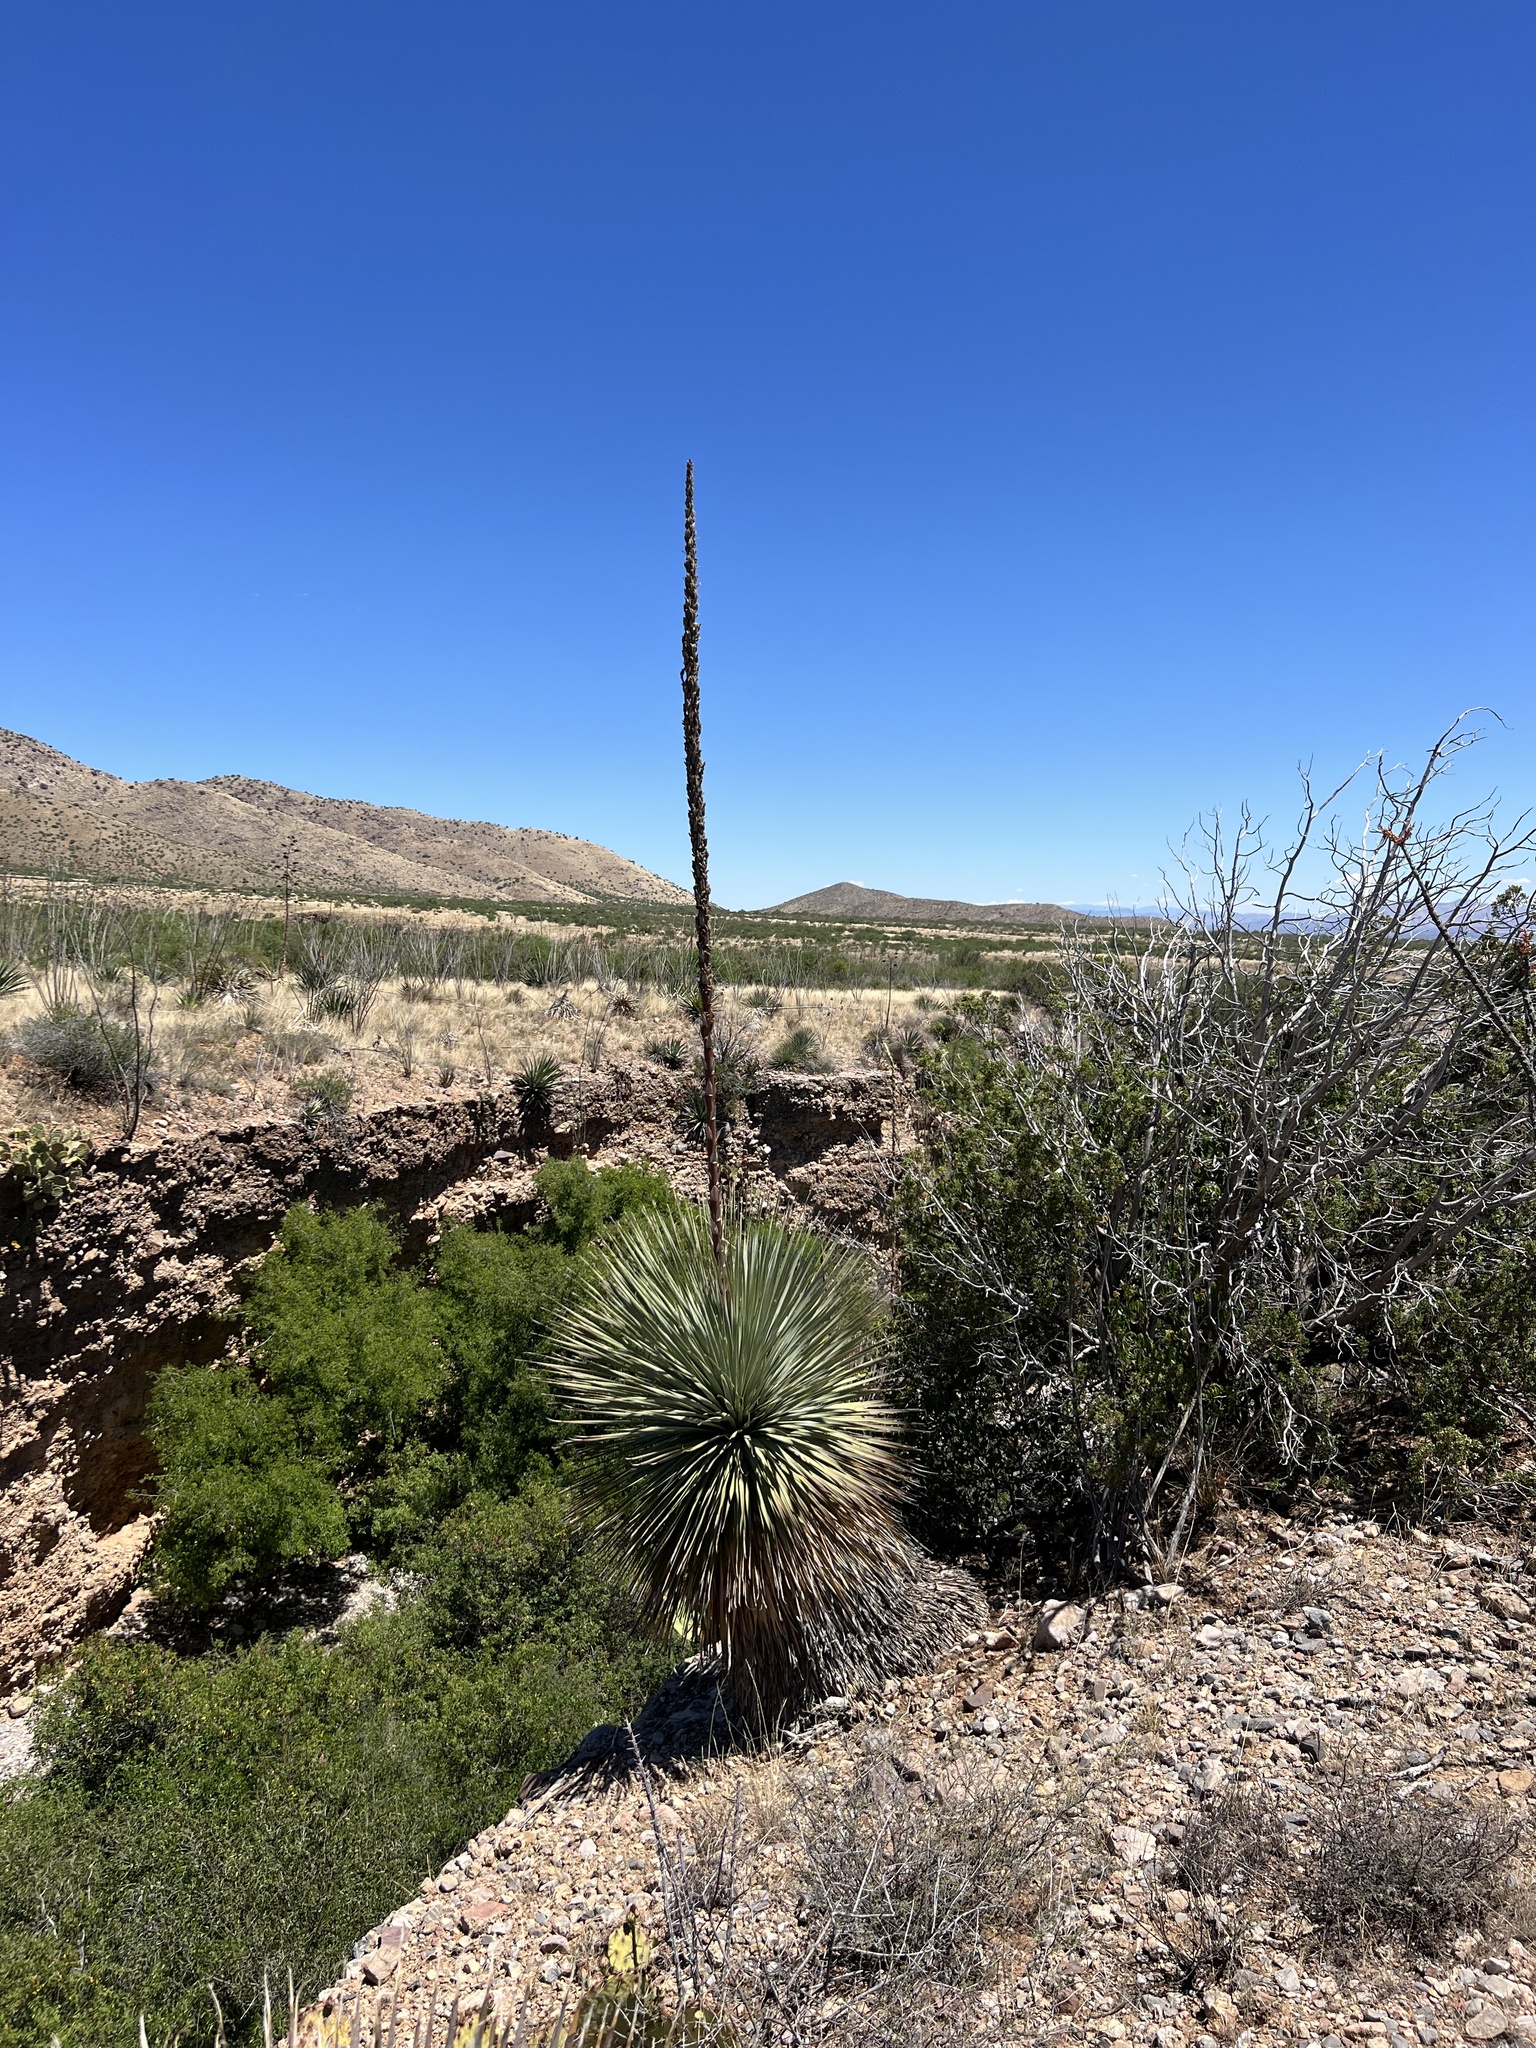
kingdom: Plantae
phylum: Tracheophyta
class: Liliopsida
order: Asparagales
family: Asparagaceae
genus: Dasylirion
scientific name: Dasylirion wheeleri
